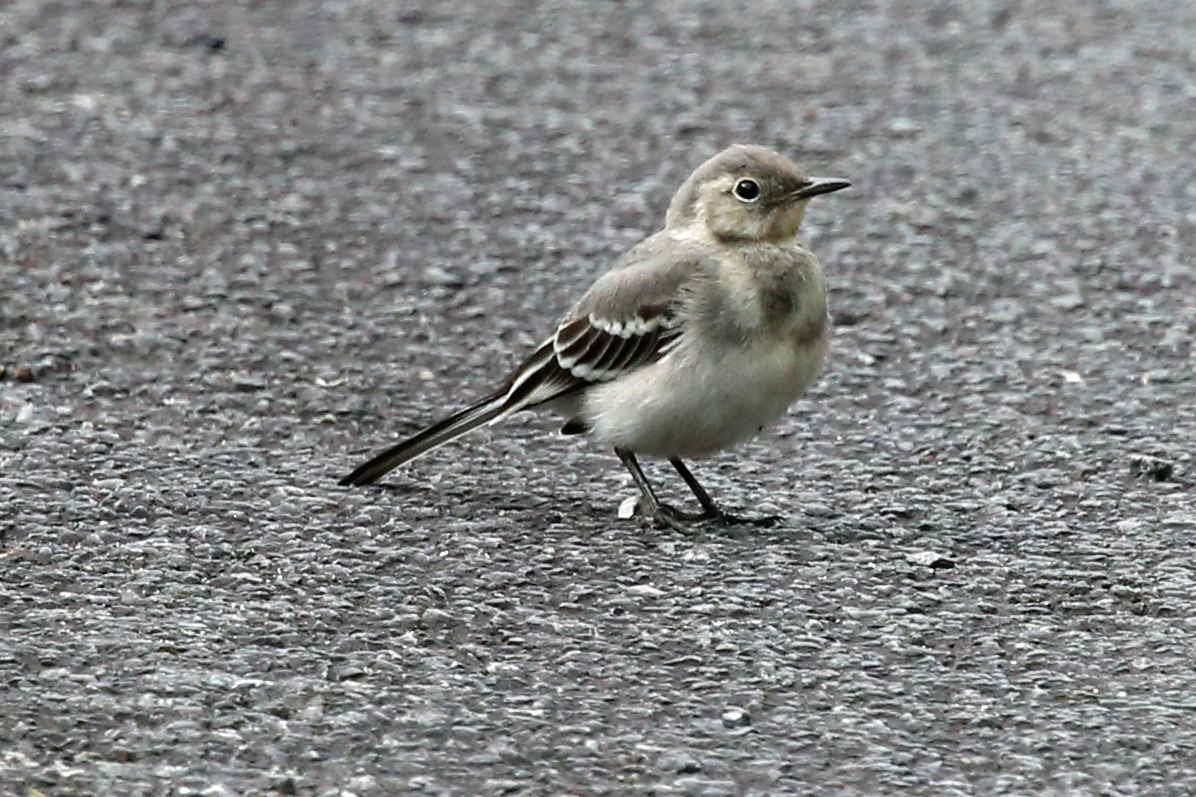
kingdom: Animalia
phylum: Chordata
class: Aves
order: Passeriformes
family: Motacillidae
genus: Motacilla
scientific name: Motacilla alba
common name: White wagtail
